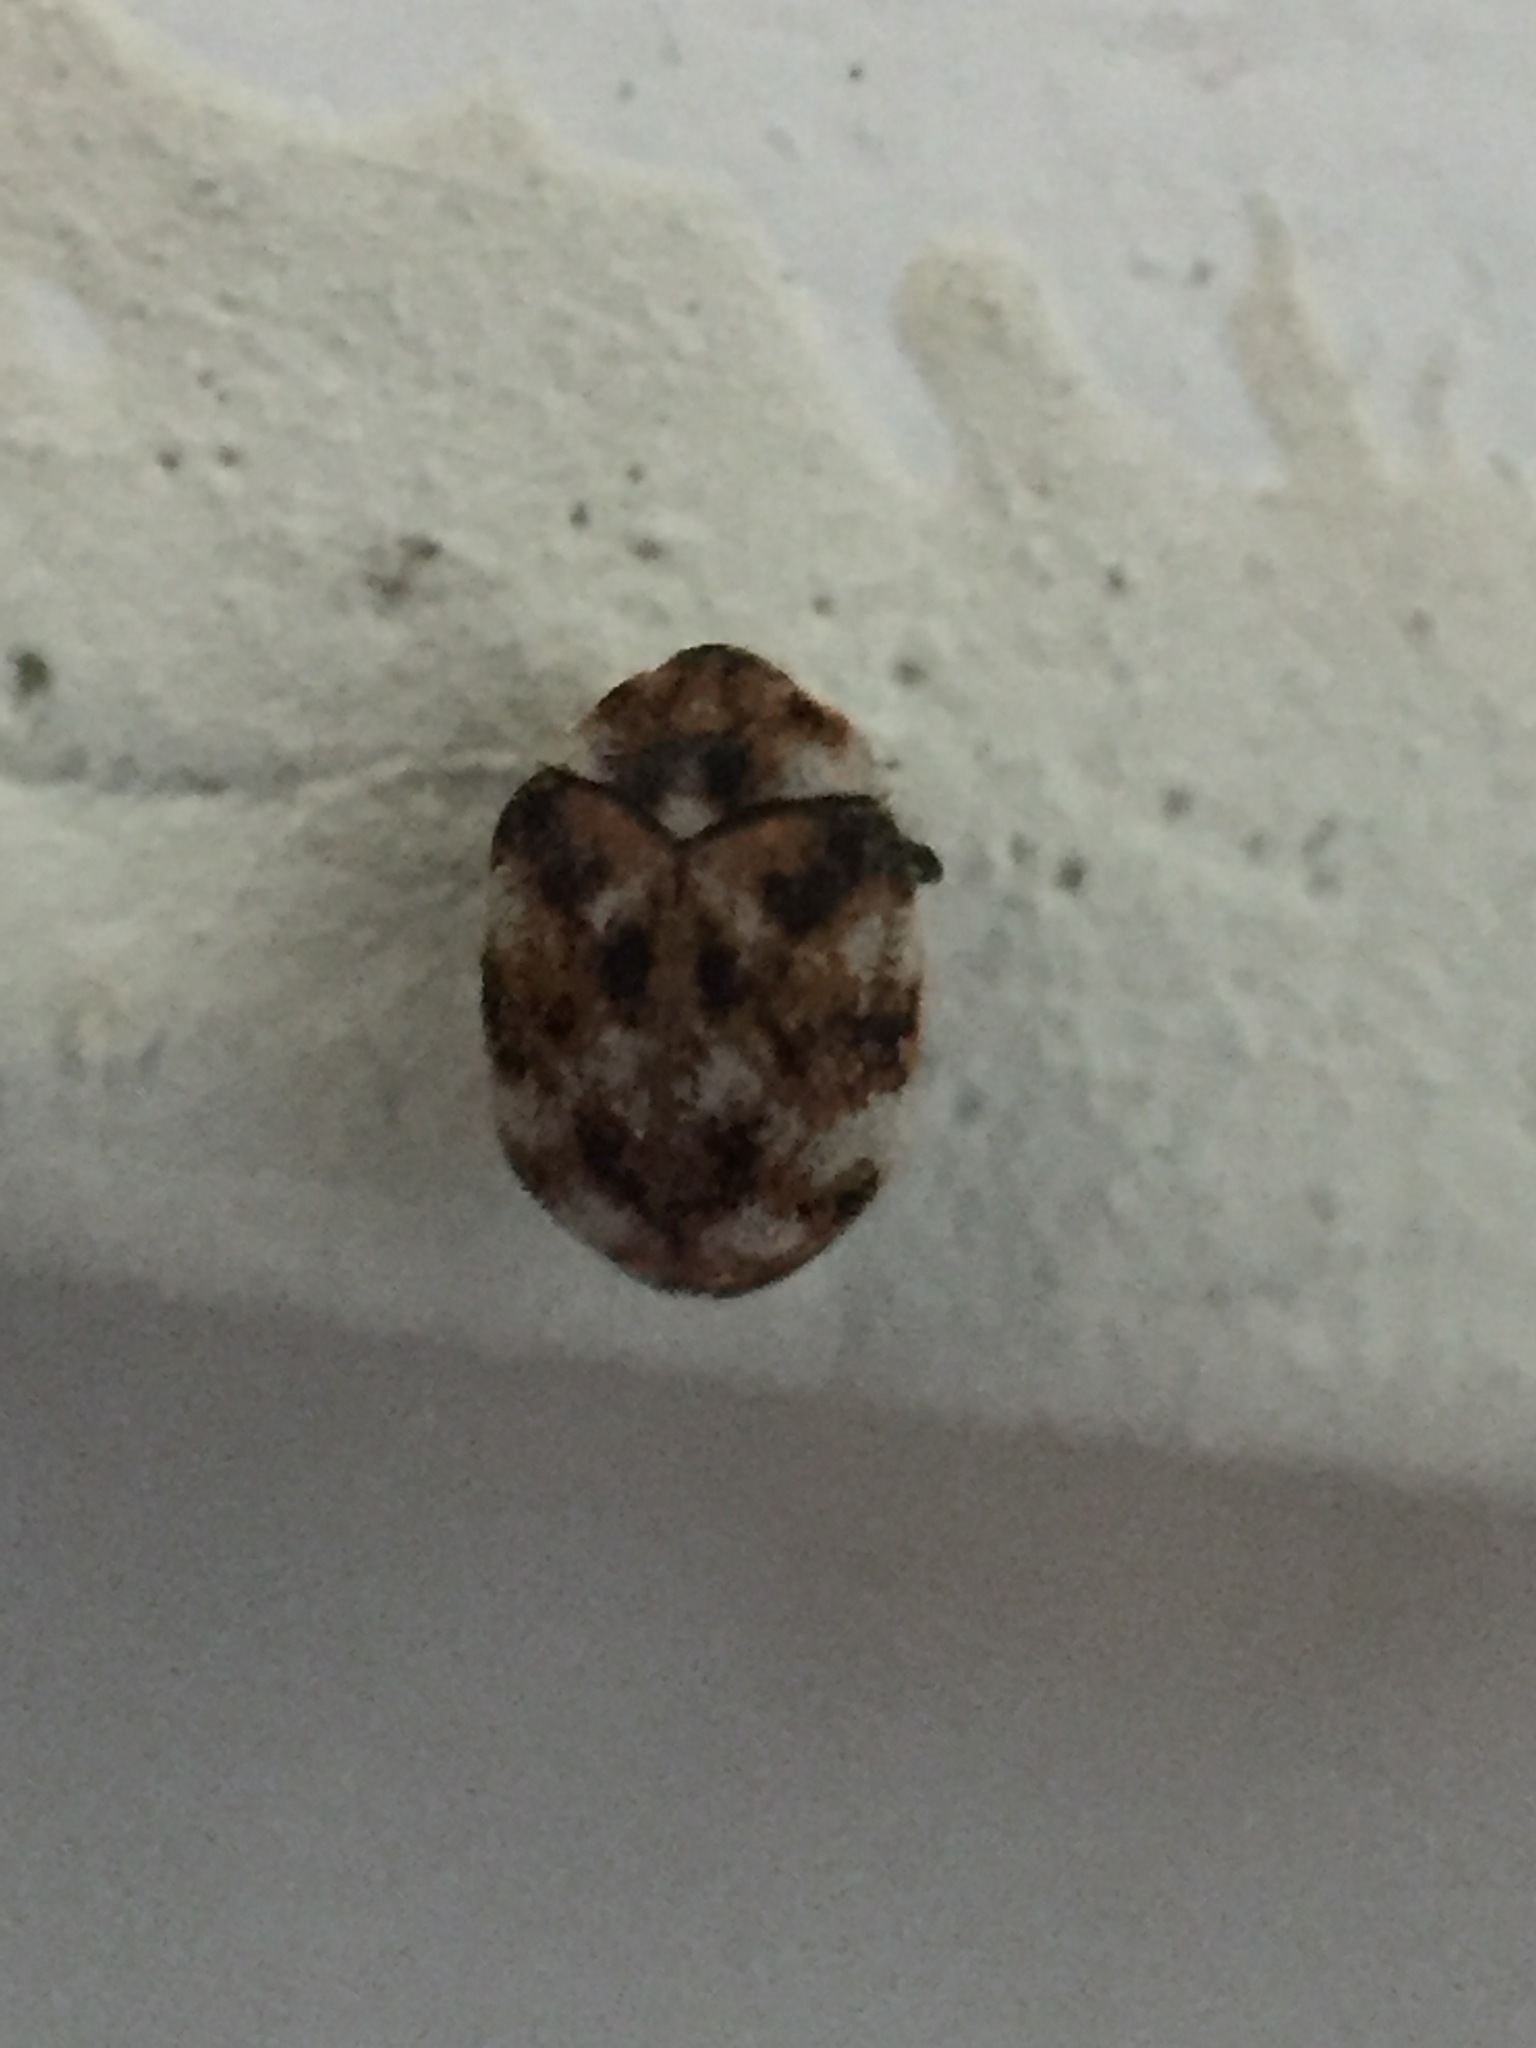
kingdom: Animalia
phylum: Arthropoda
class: Insecta
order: Coleoptera
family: Dermestidae
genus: Anthrenus
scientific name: Anthrenus verbasci
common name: Varied carpet beetle
